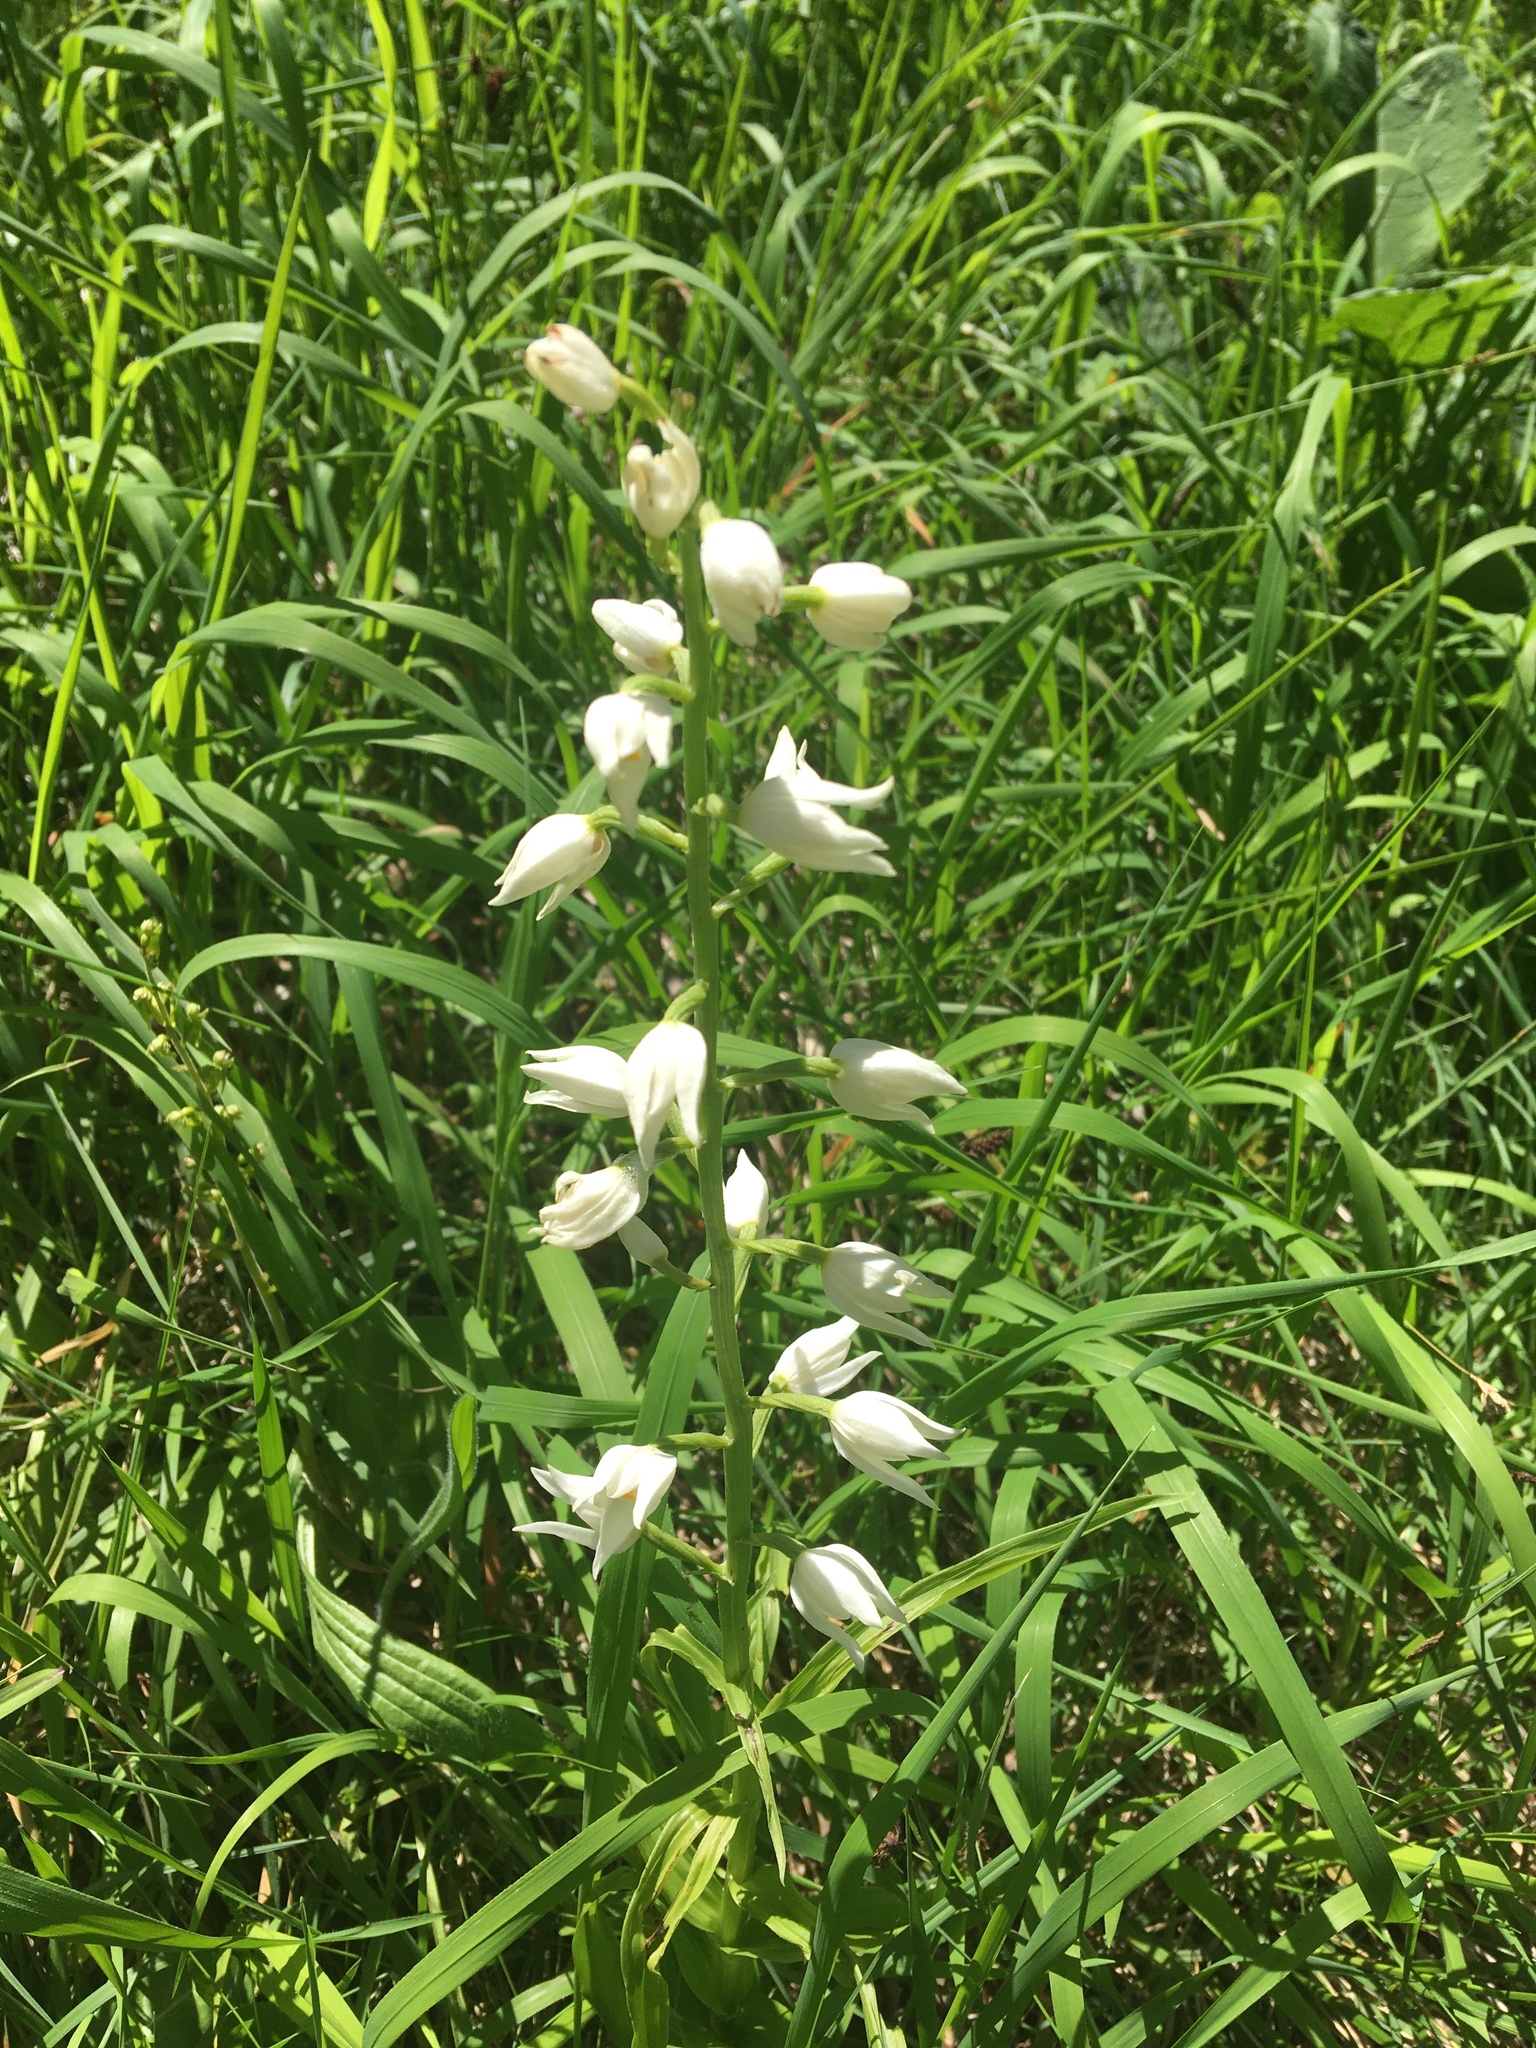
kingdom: Plantae
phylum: Tracheophyta
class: Liliopsida
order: Asparagales
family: Orchidaceae
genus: Cephalanthera
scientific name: Cephalanthera longifolia
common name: Narrow-leaved helleborine
